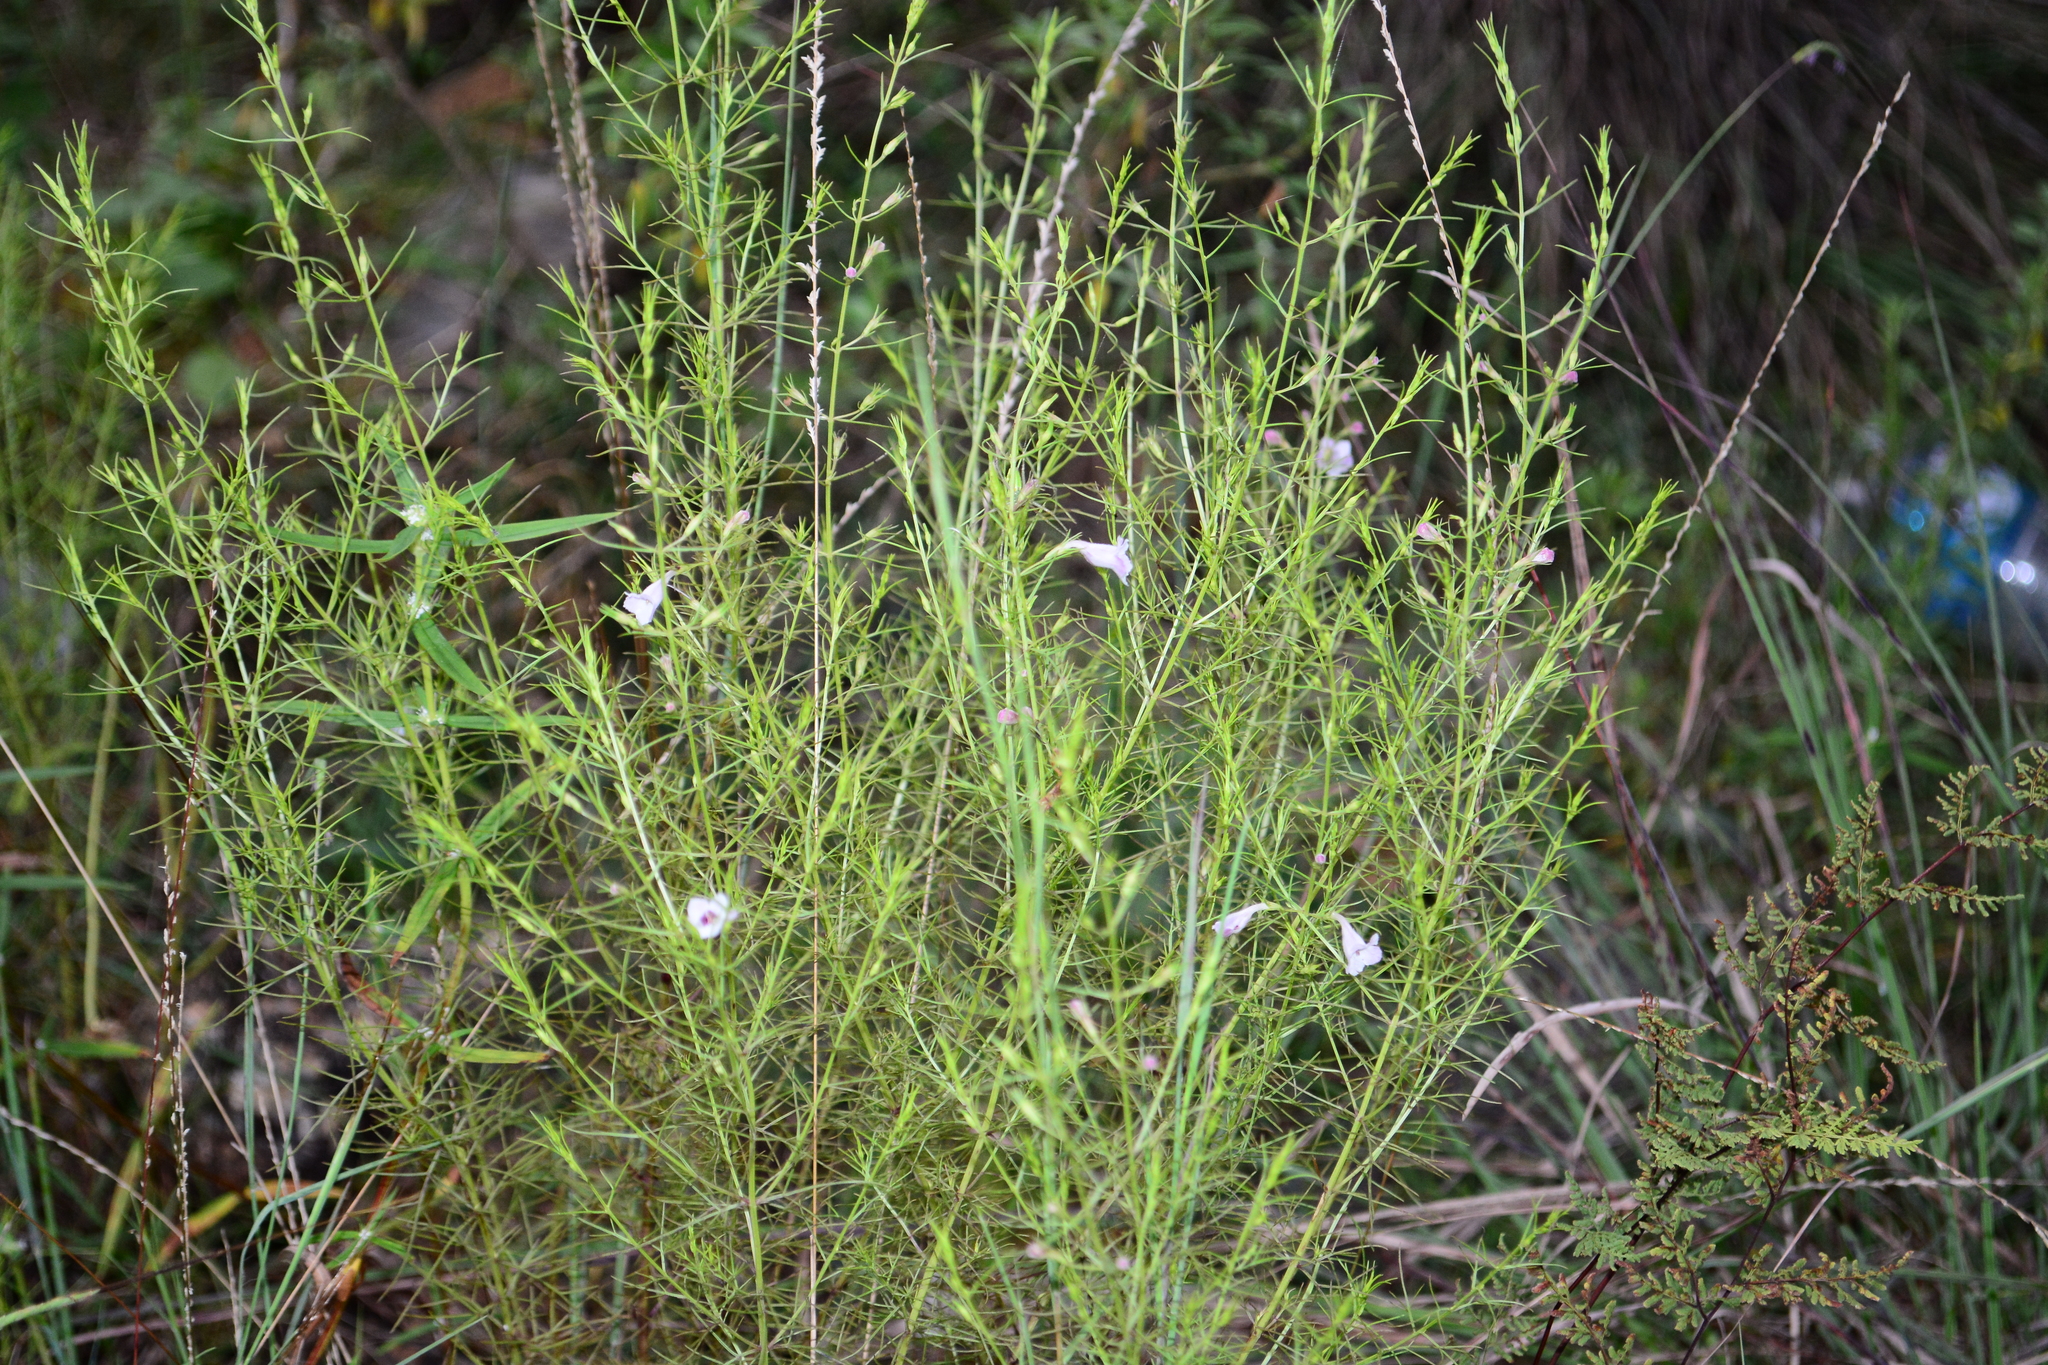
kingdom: Plantae
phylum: Tracheophyta
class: Magnoliopsida
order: Lamiales
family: Orobanchaceae
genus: Parasopubia
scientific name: Parasopubia delphiniifolia
